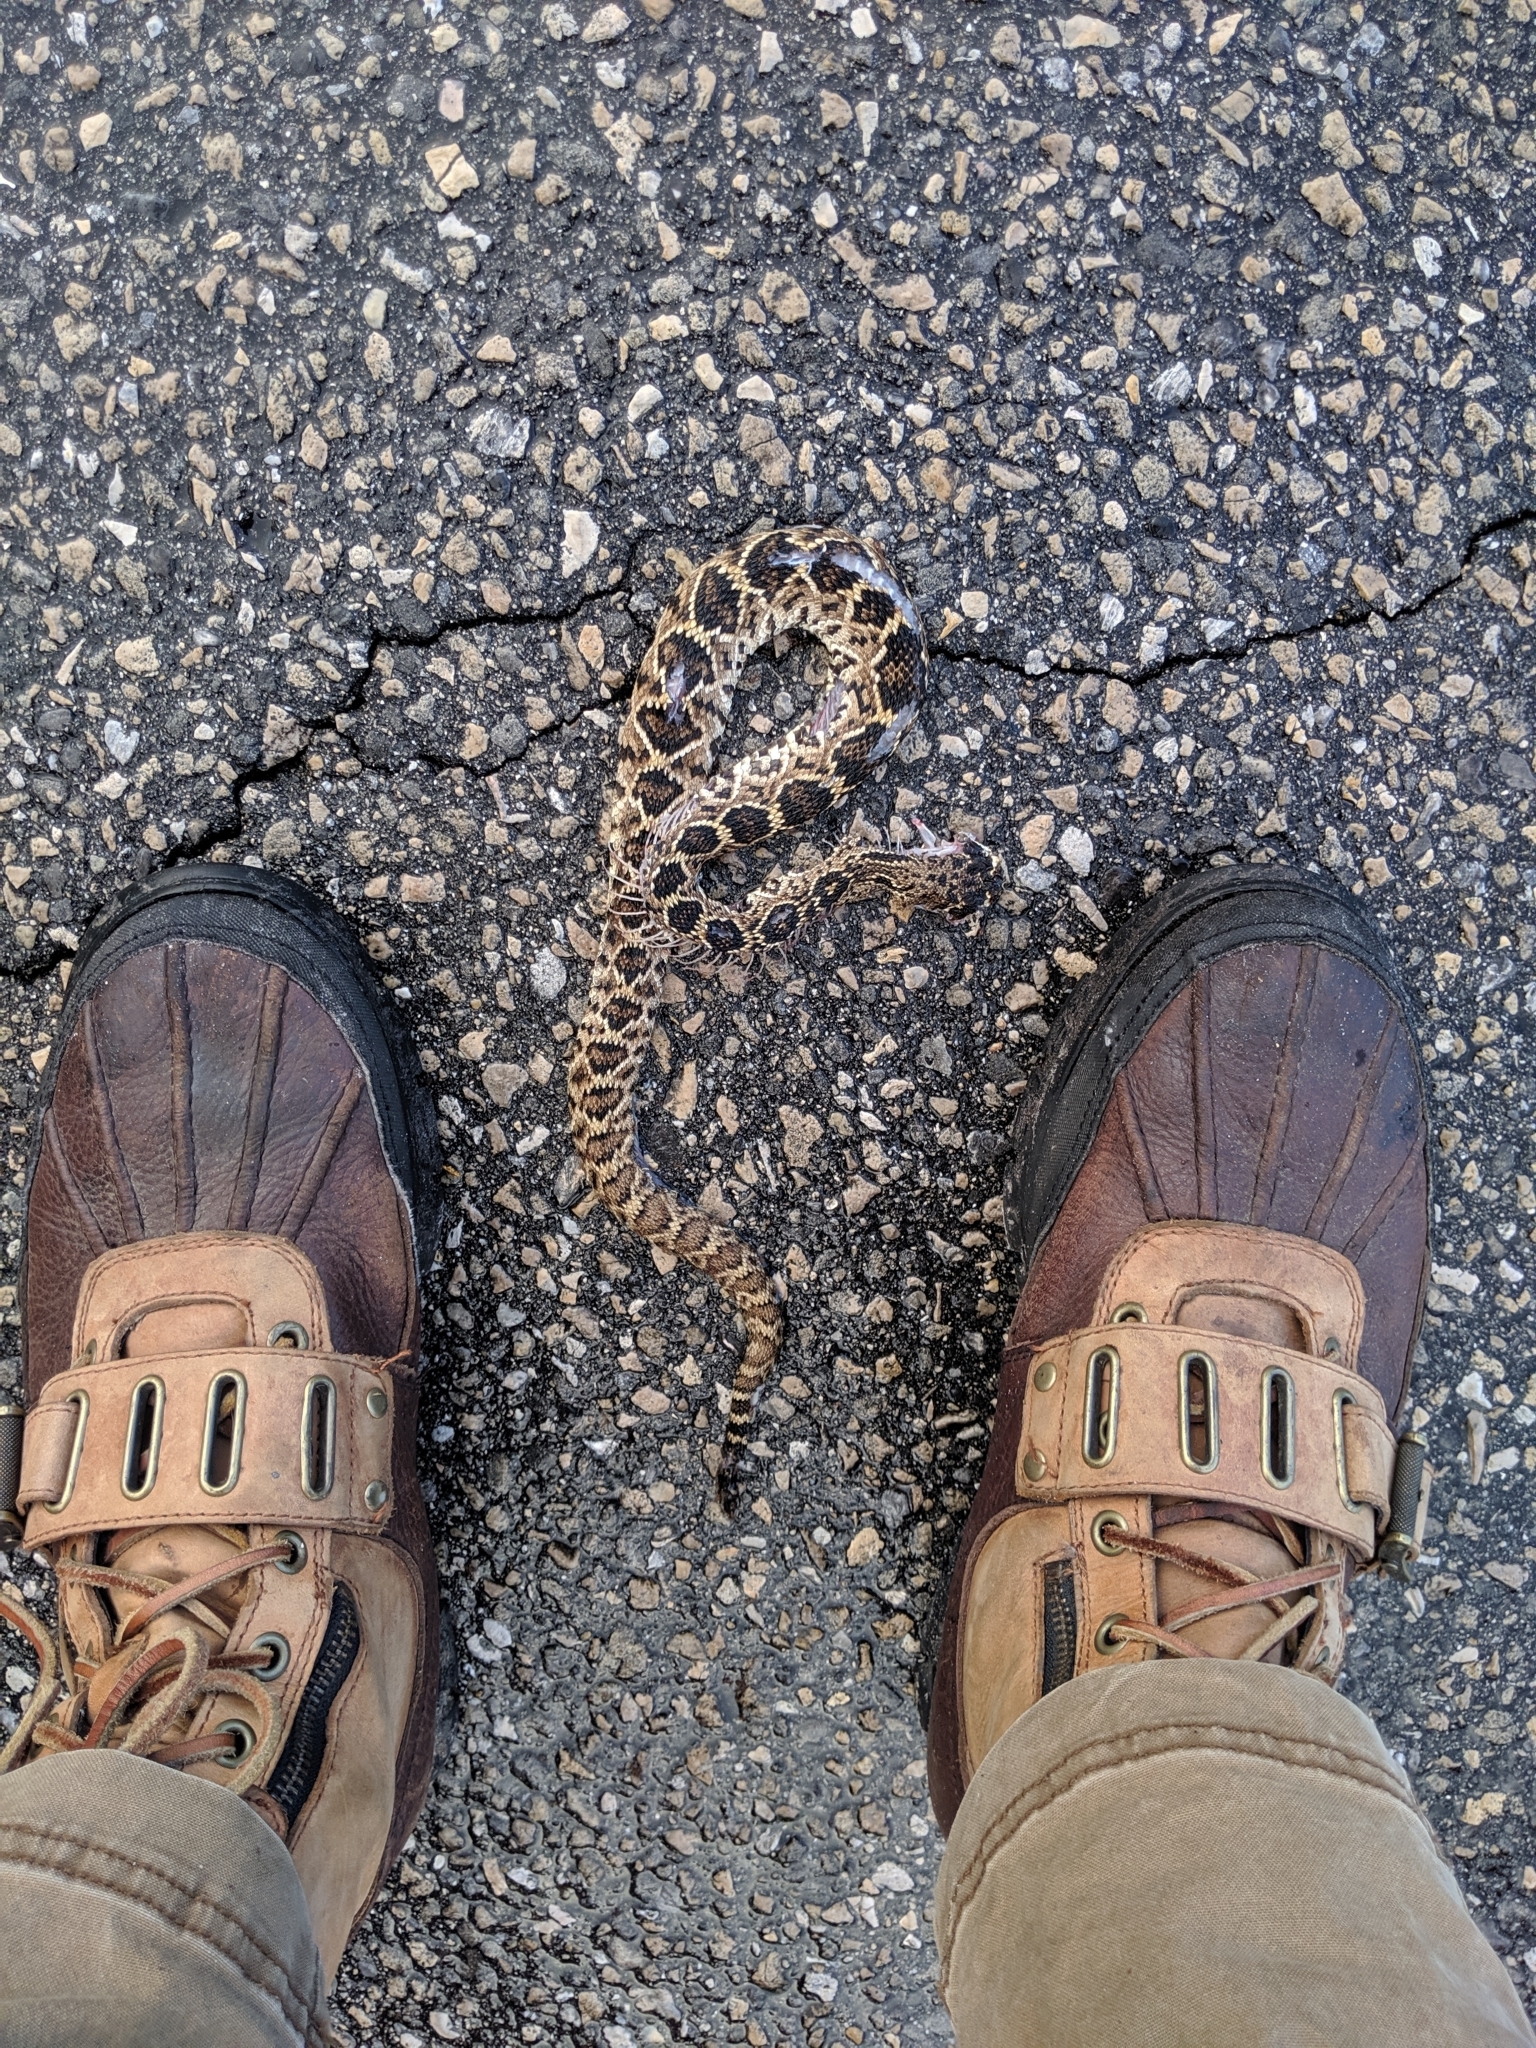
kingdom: Animalia
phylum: Chordata
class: Squamata
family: Viperidae
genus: Crotalus
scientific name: Crotalus adamanteus
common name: Eastern diamondback rattlesnake
